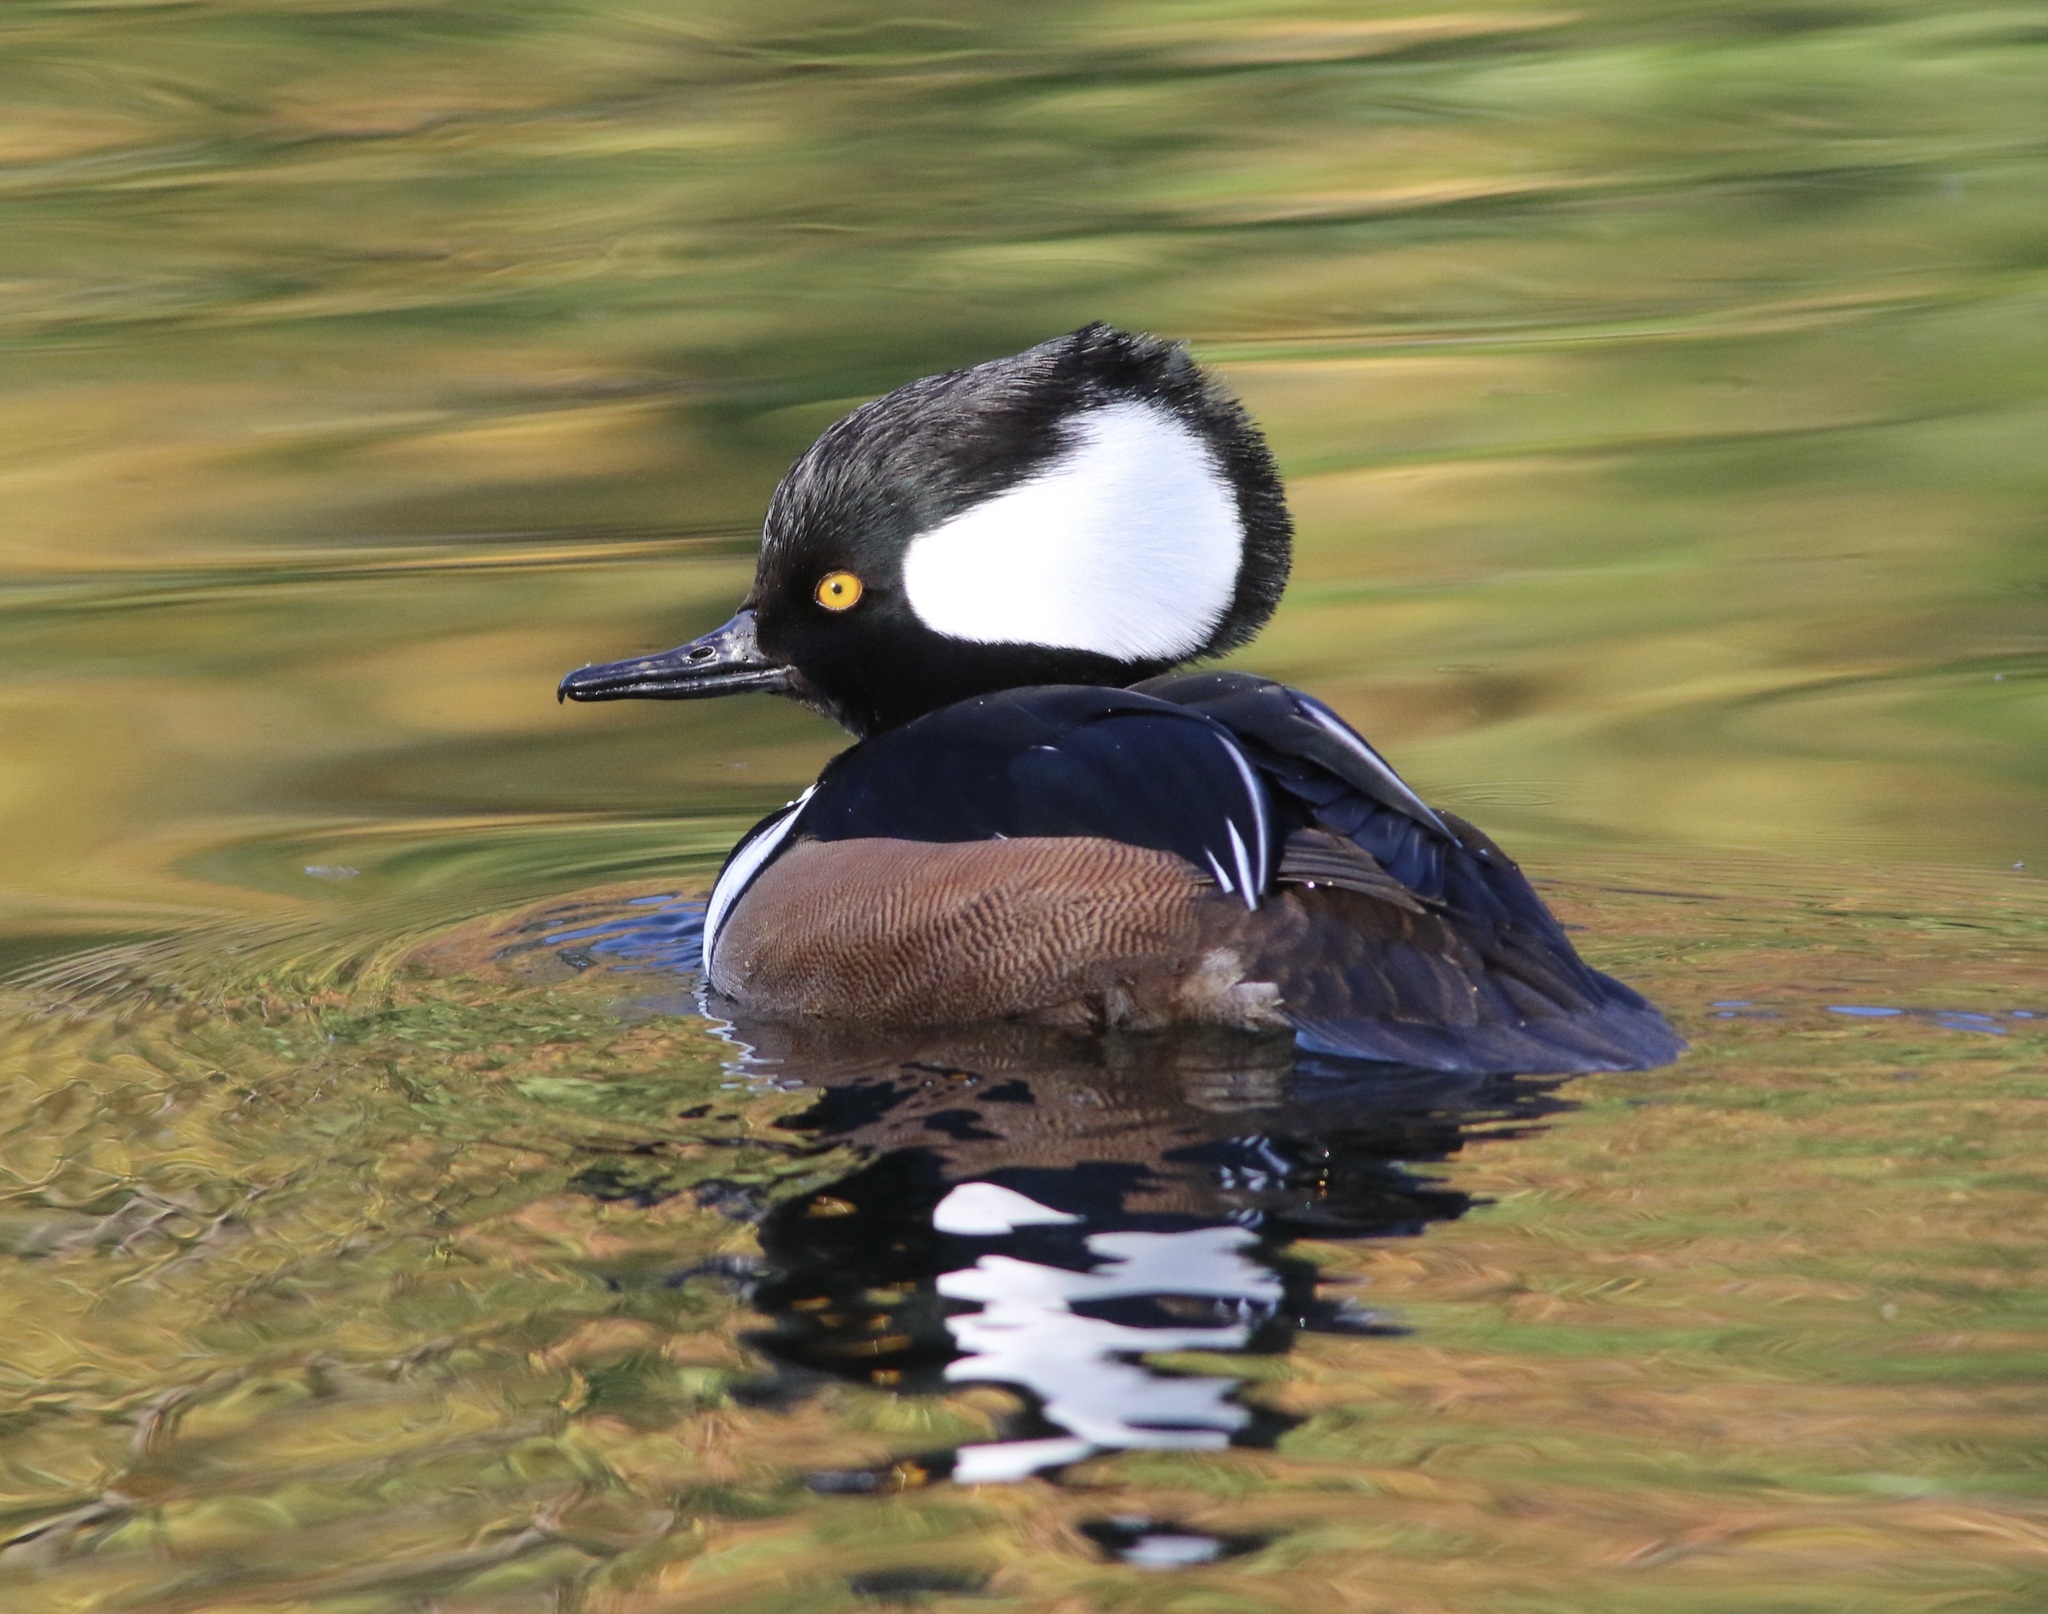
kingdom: Animalia
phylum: Chordata
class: Aves
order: Anseriformes
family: Anatidae
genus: Lophodytes
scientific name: Lophodytes cucullatus
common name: Hooded merganser
